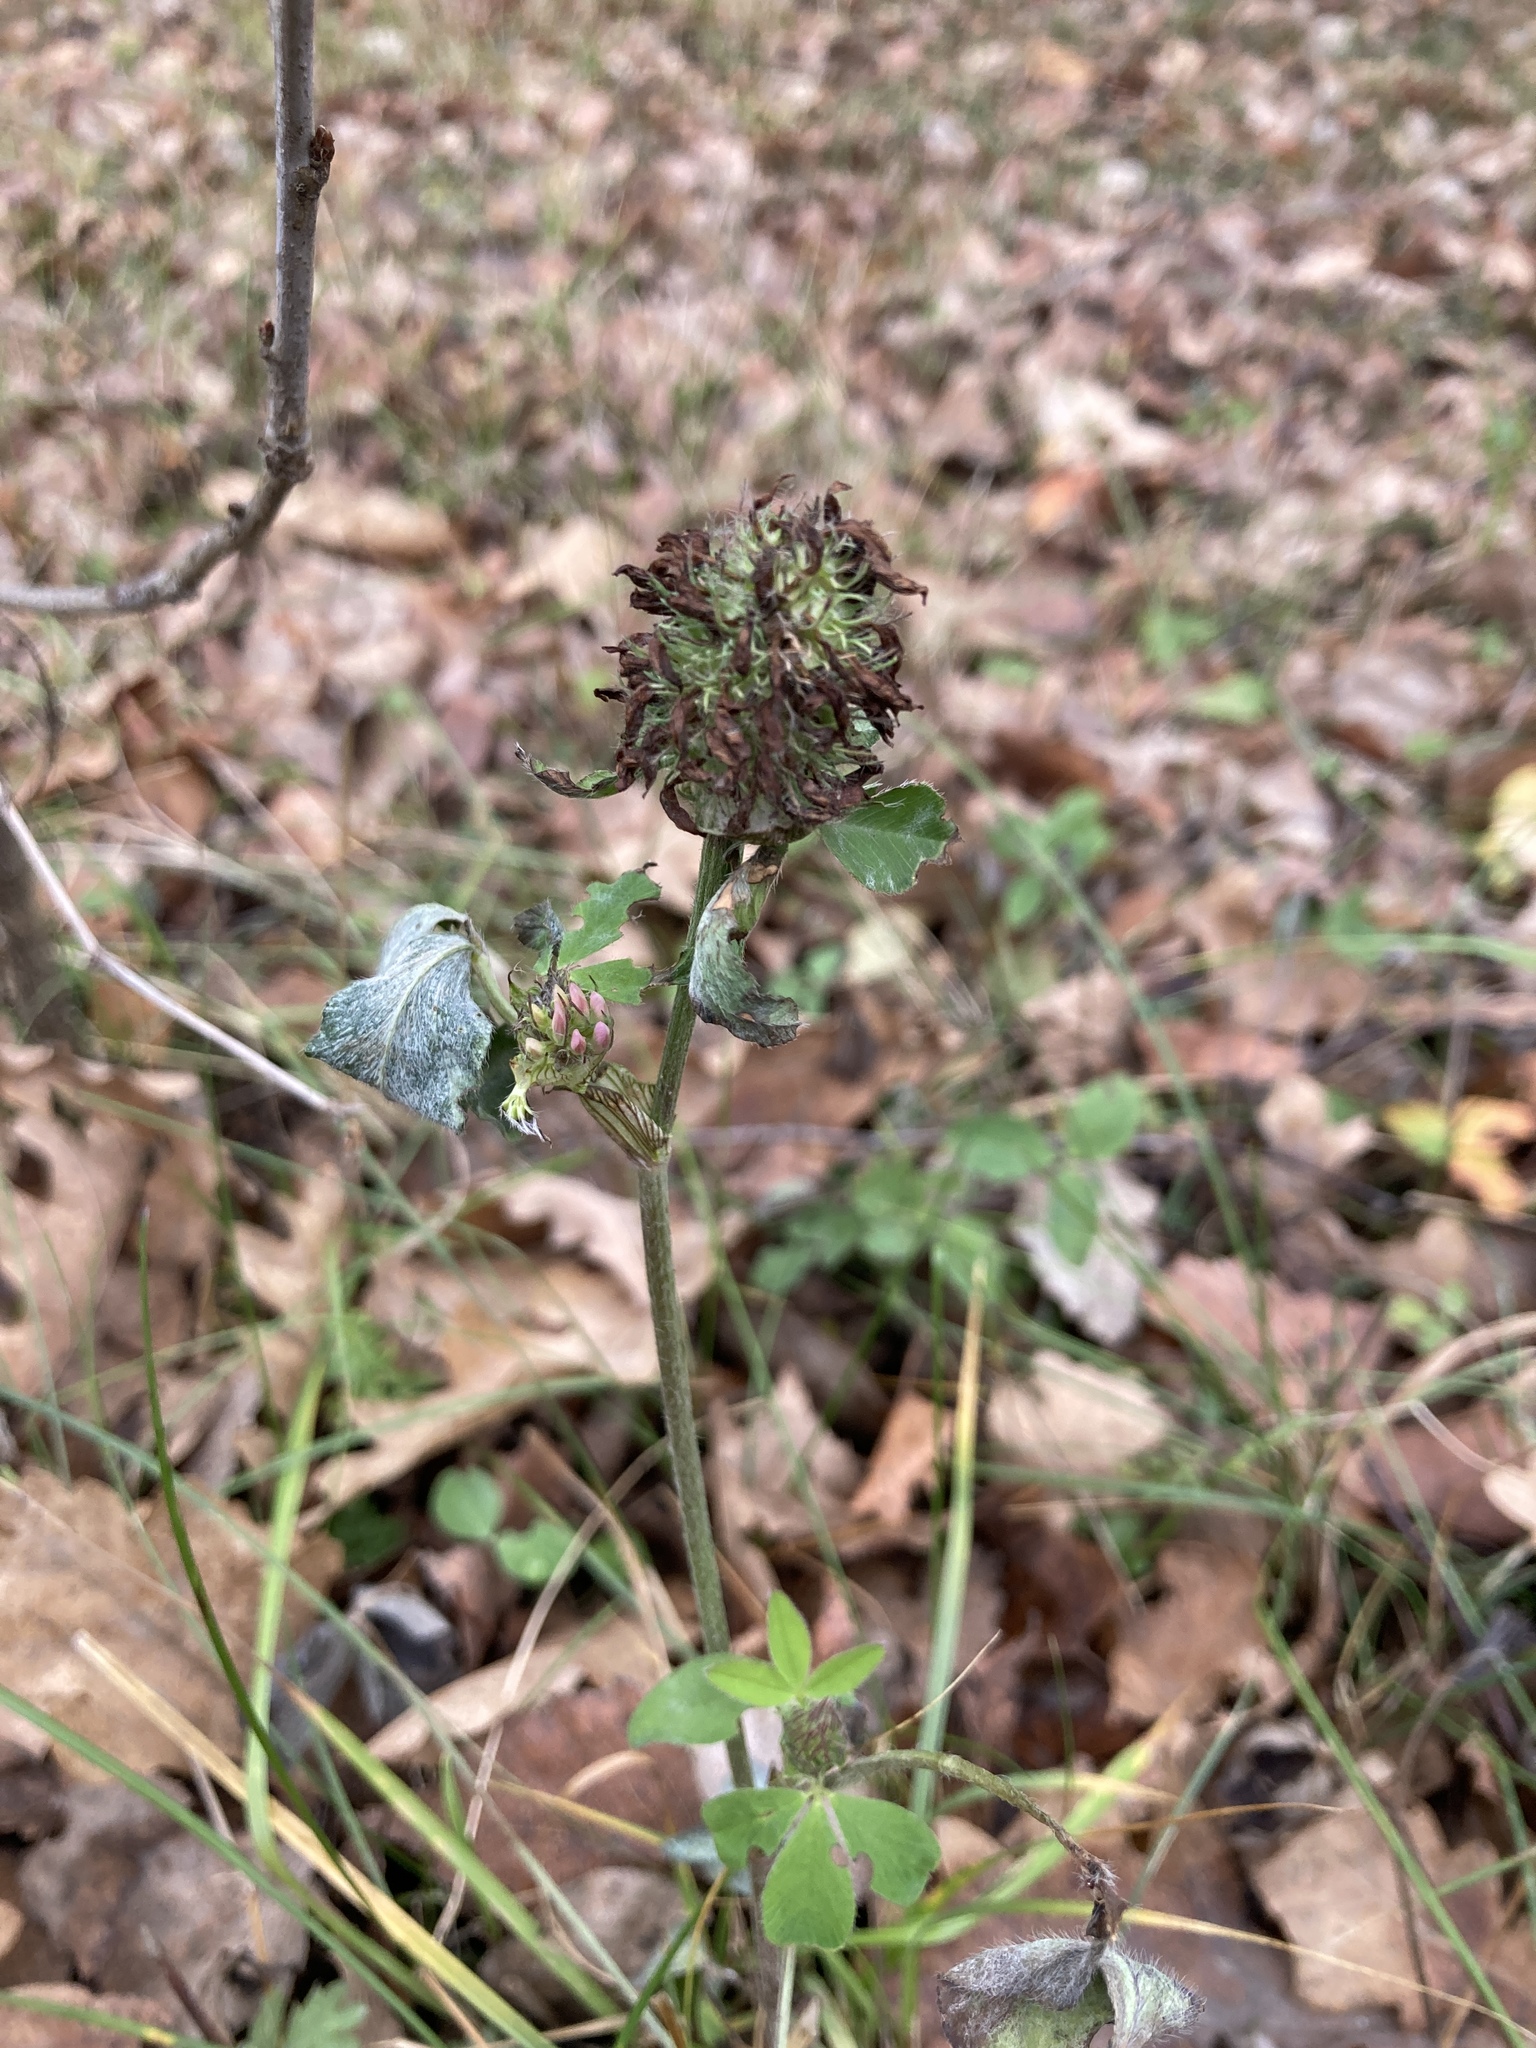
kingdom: Plantae
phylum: Tracheophyta
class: Magnoliopsida
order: Fabales
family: Fabaceae
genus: Trifolium
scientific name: Trifolium pratense
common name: Red clover
